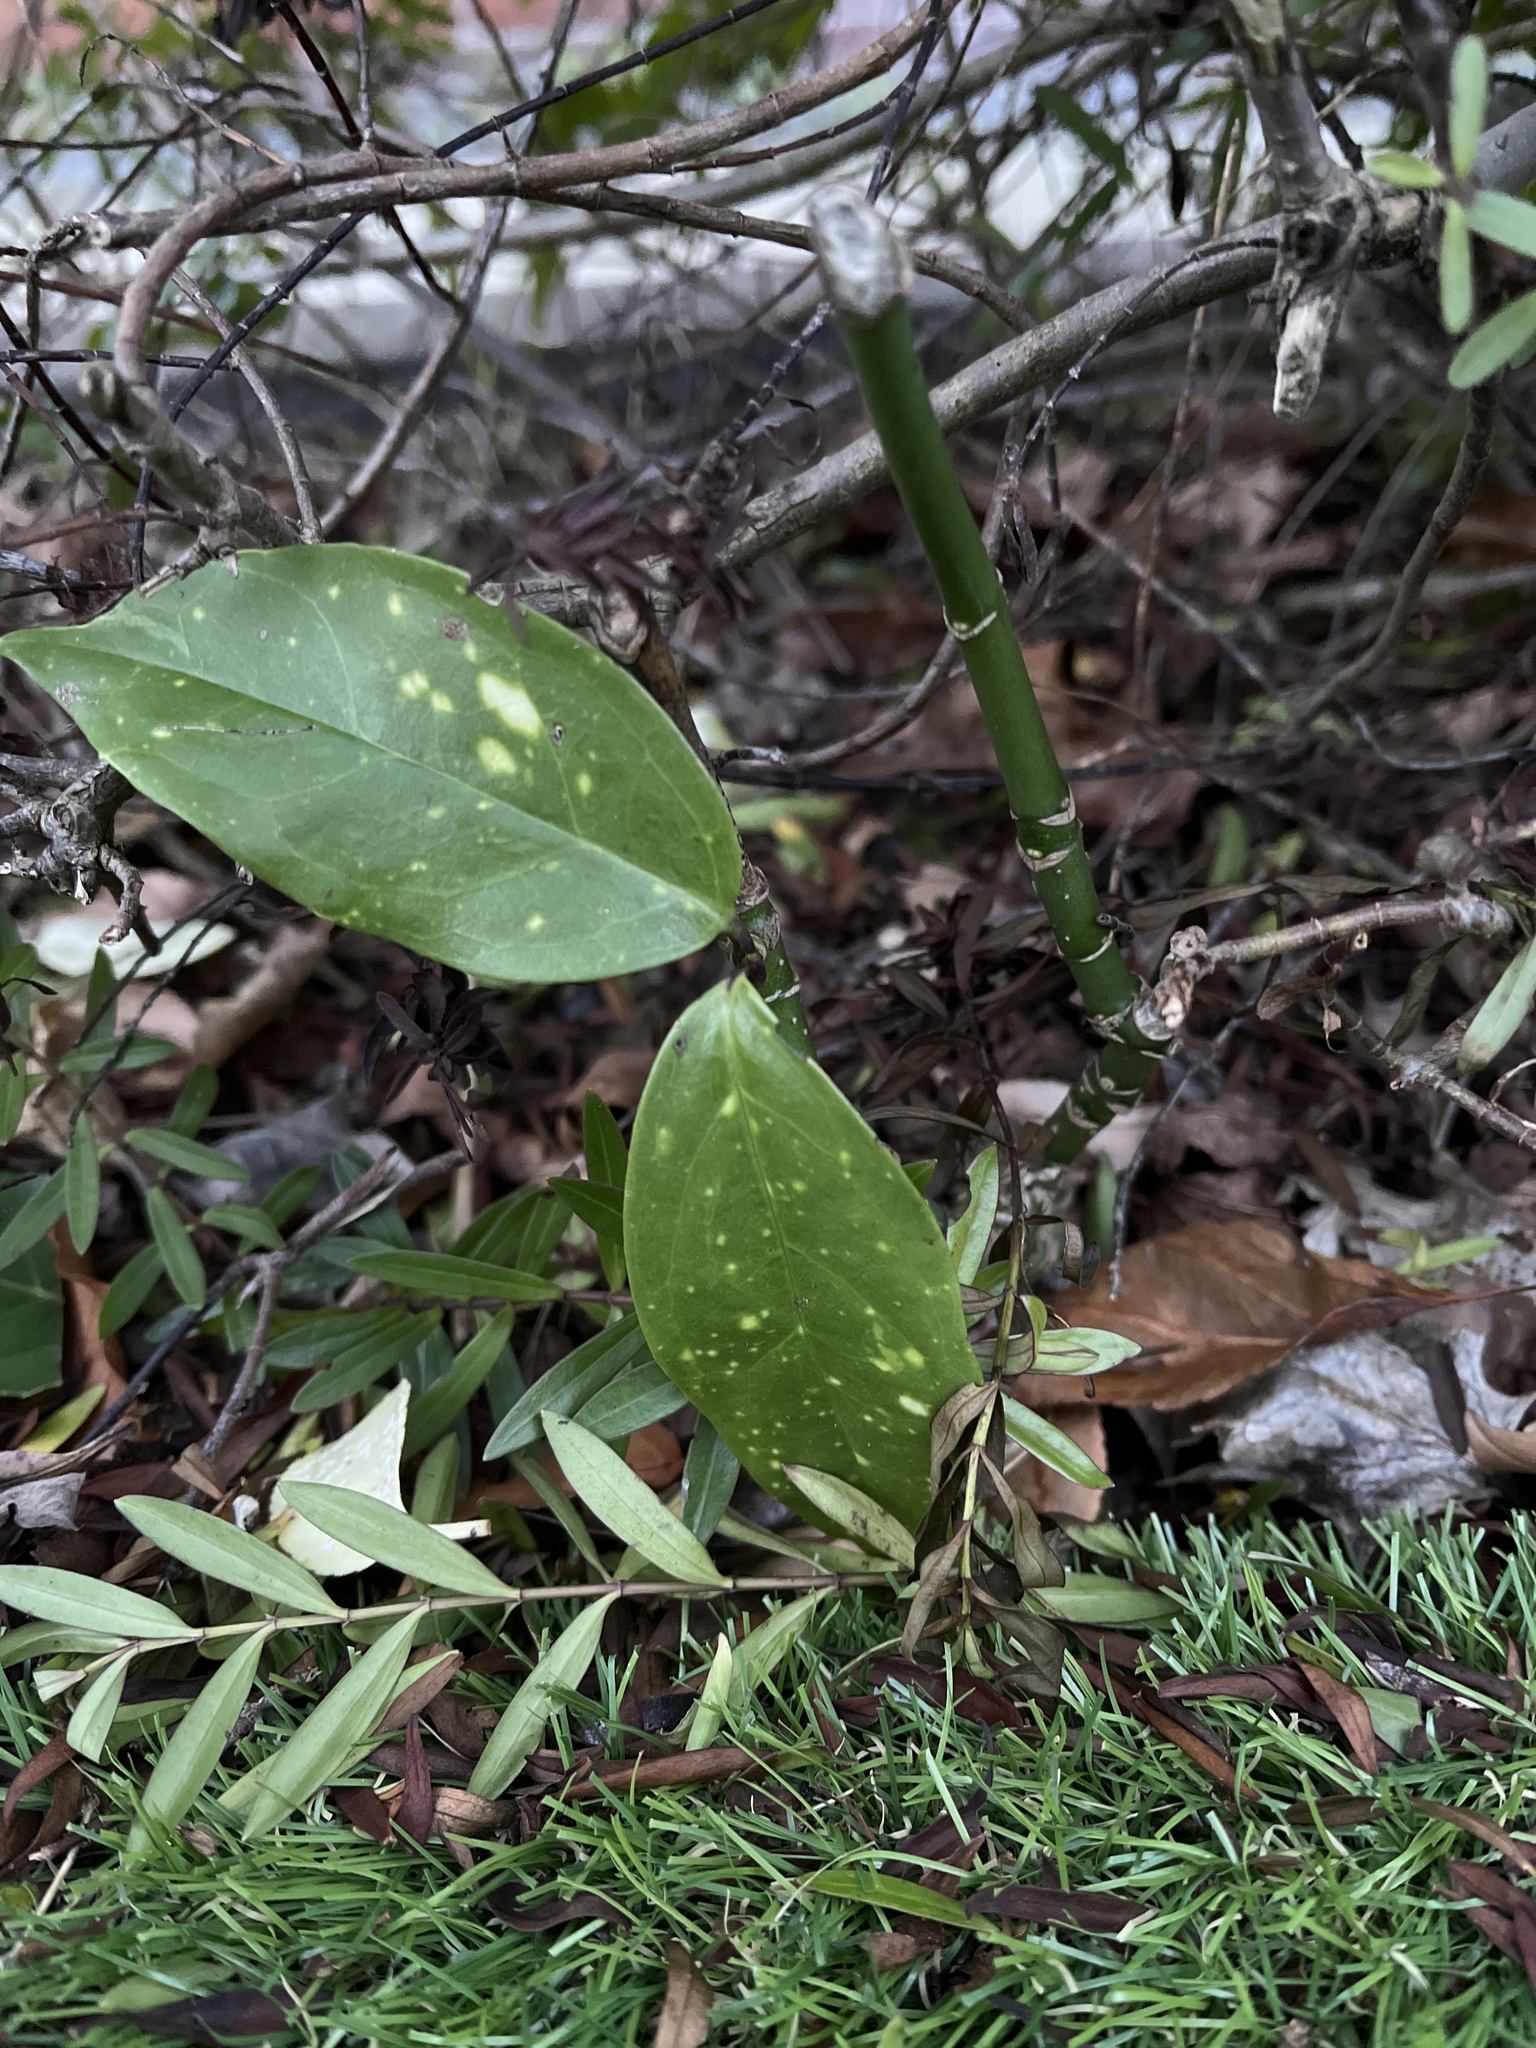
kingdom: Plantae
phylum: Tracheophyta
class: Magnoliopsida
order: Garryales
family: Garryaceae
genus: Aucuba
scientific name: Aucuba japonica
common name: Spotted-laurel
